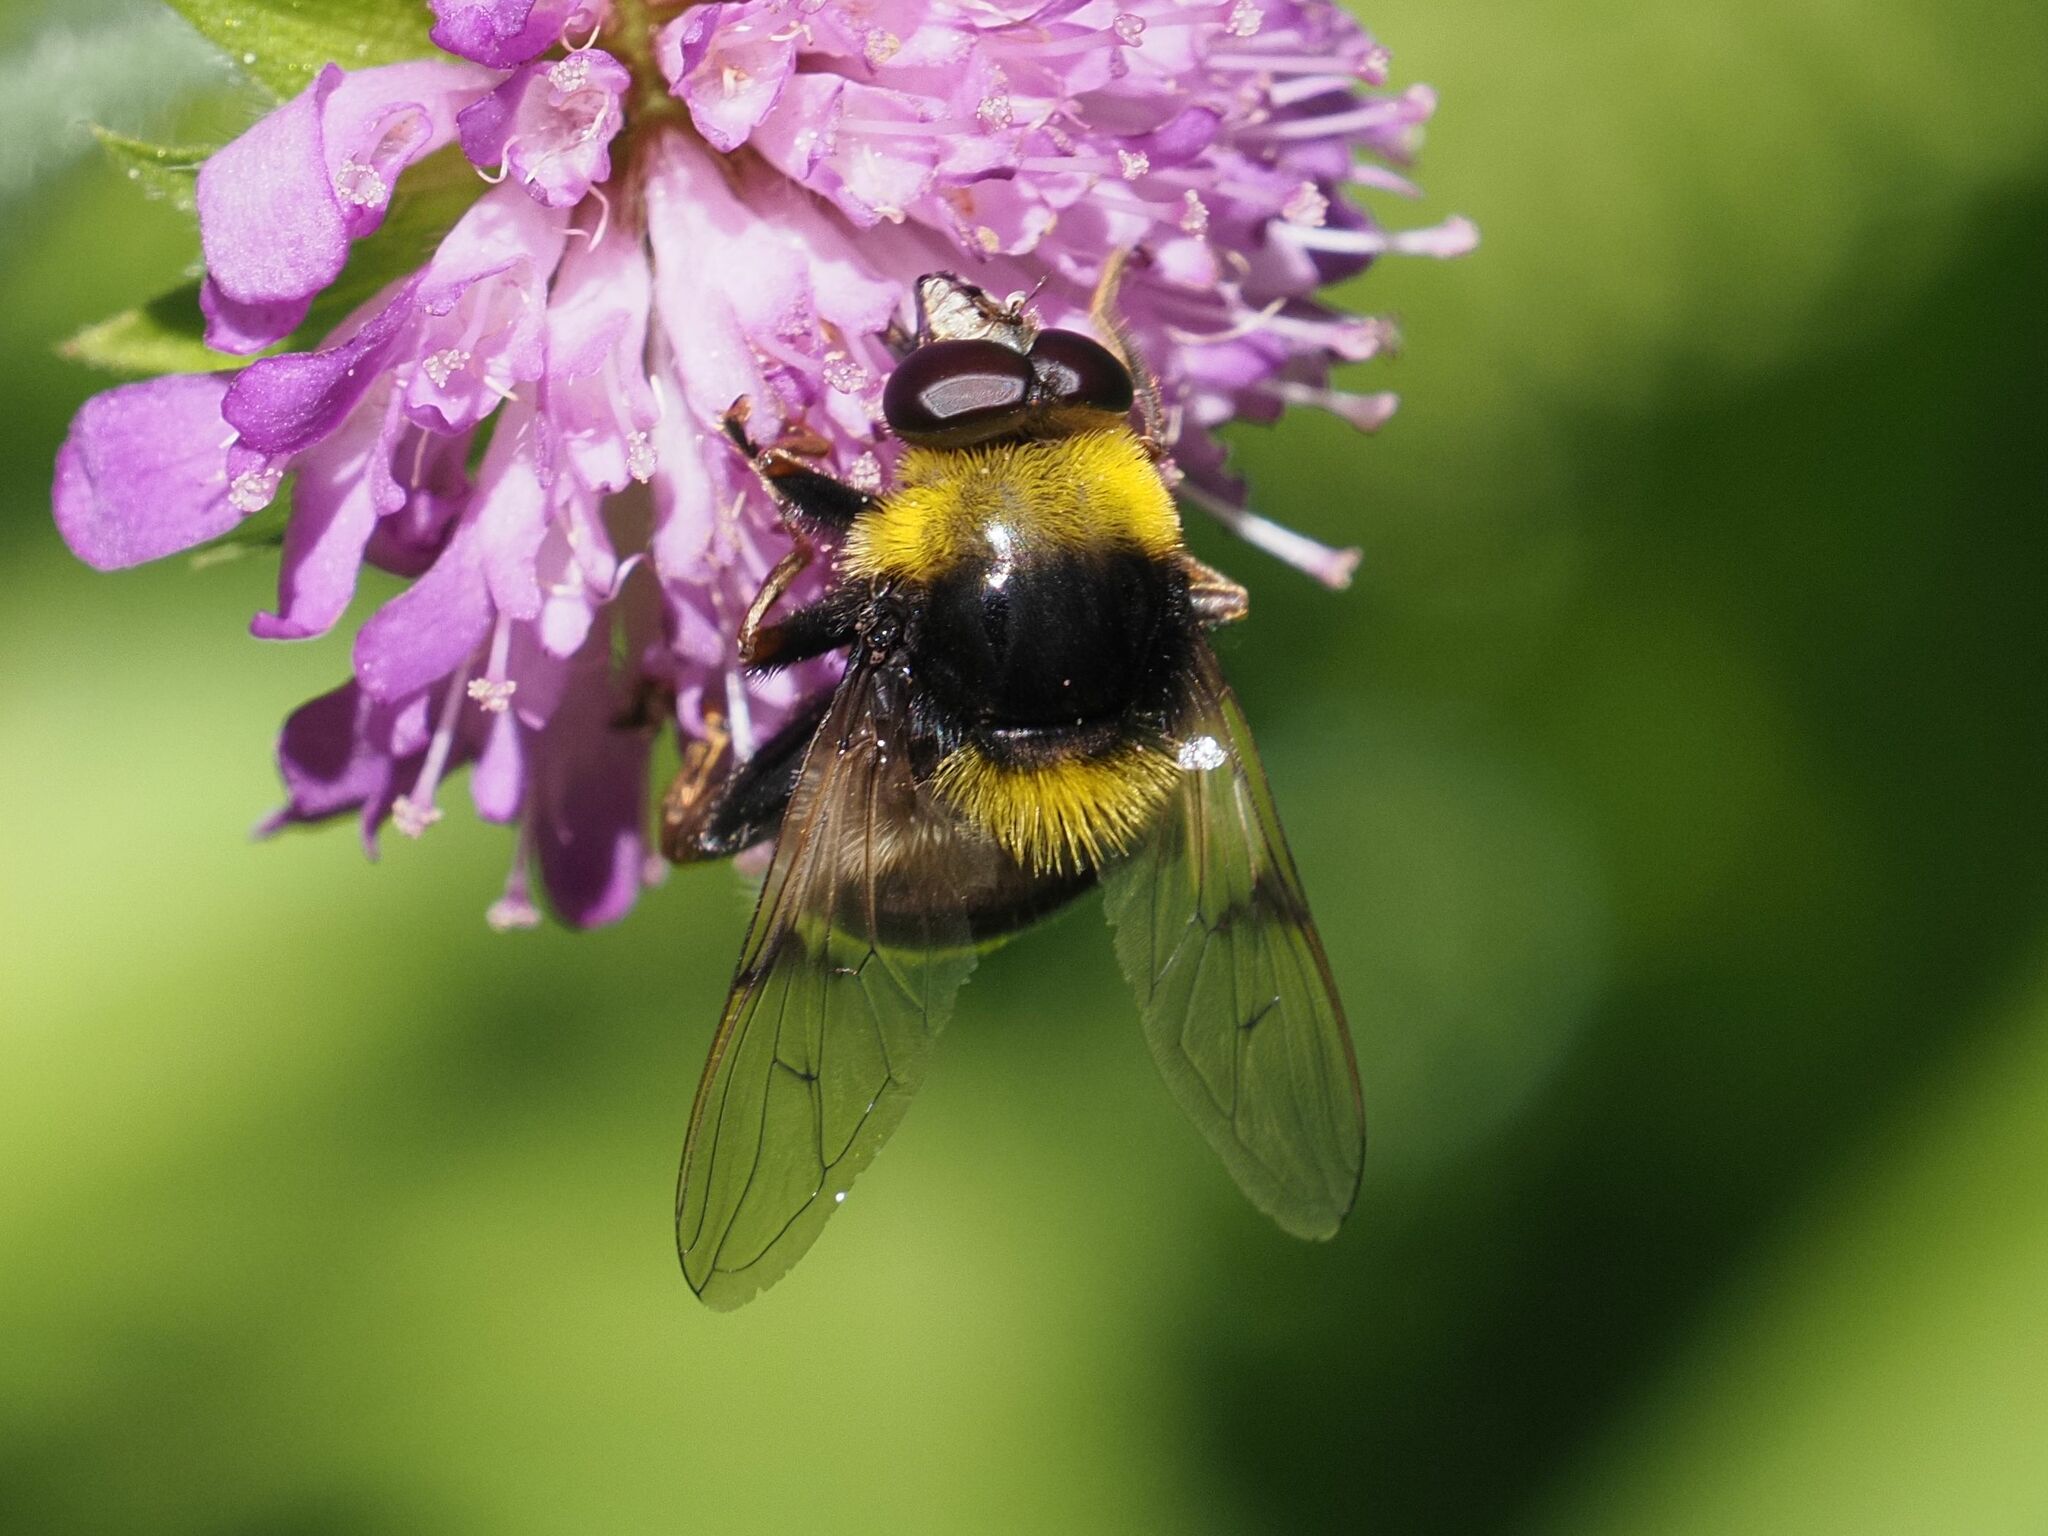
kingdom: Animalia
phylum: Arthropoda
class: Insecta
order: Diptera
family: Syrphidae
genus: Sericomyia
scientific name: Sericomyia bombiformis
